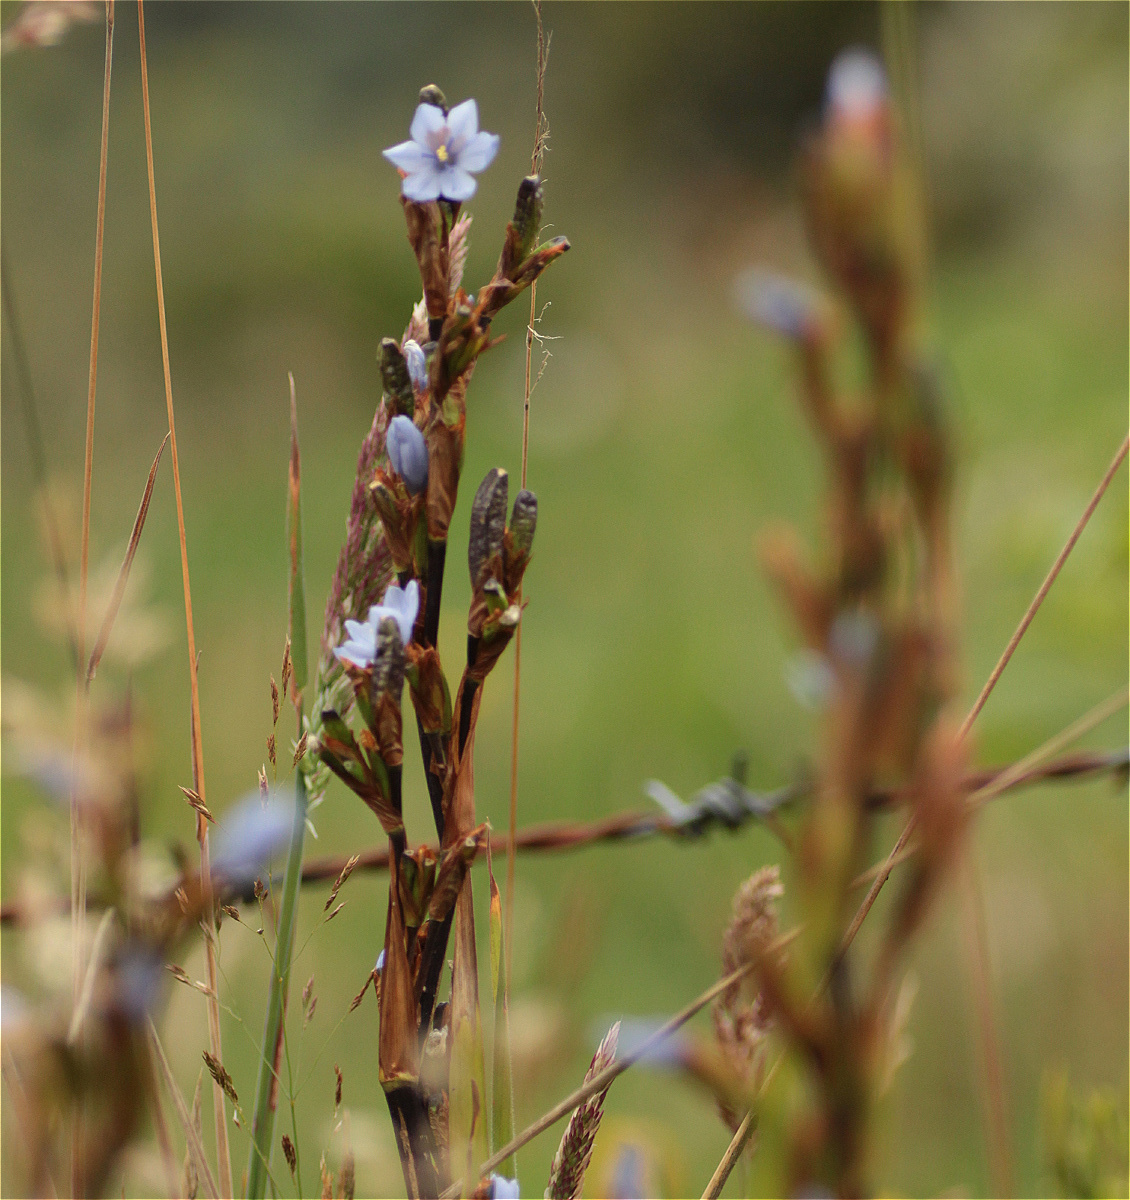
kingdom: Plantae
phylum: Tracheophyta
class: Liliopsida
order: Asparagales
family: Iridaceae
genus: Orthrosanthus
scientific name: Orthrosanthus chimboracensis
